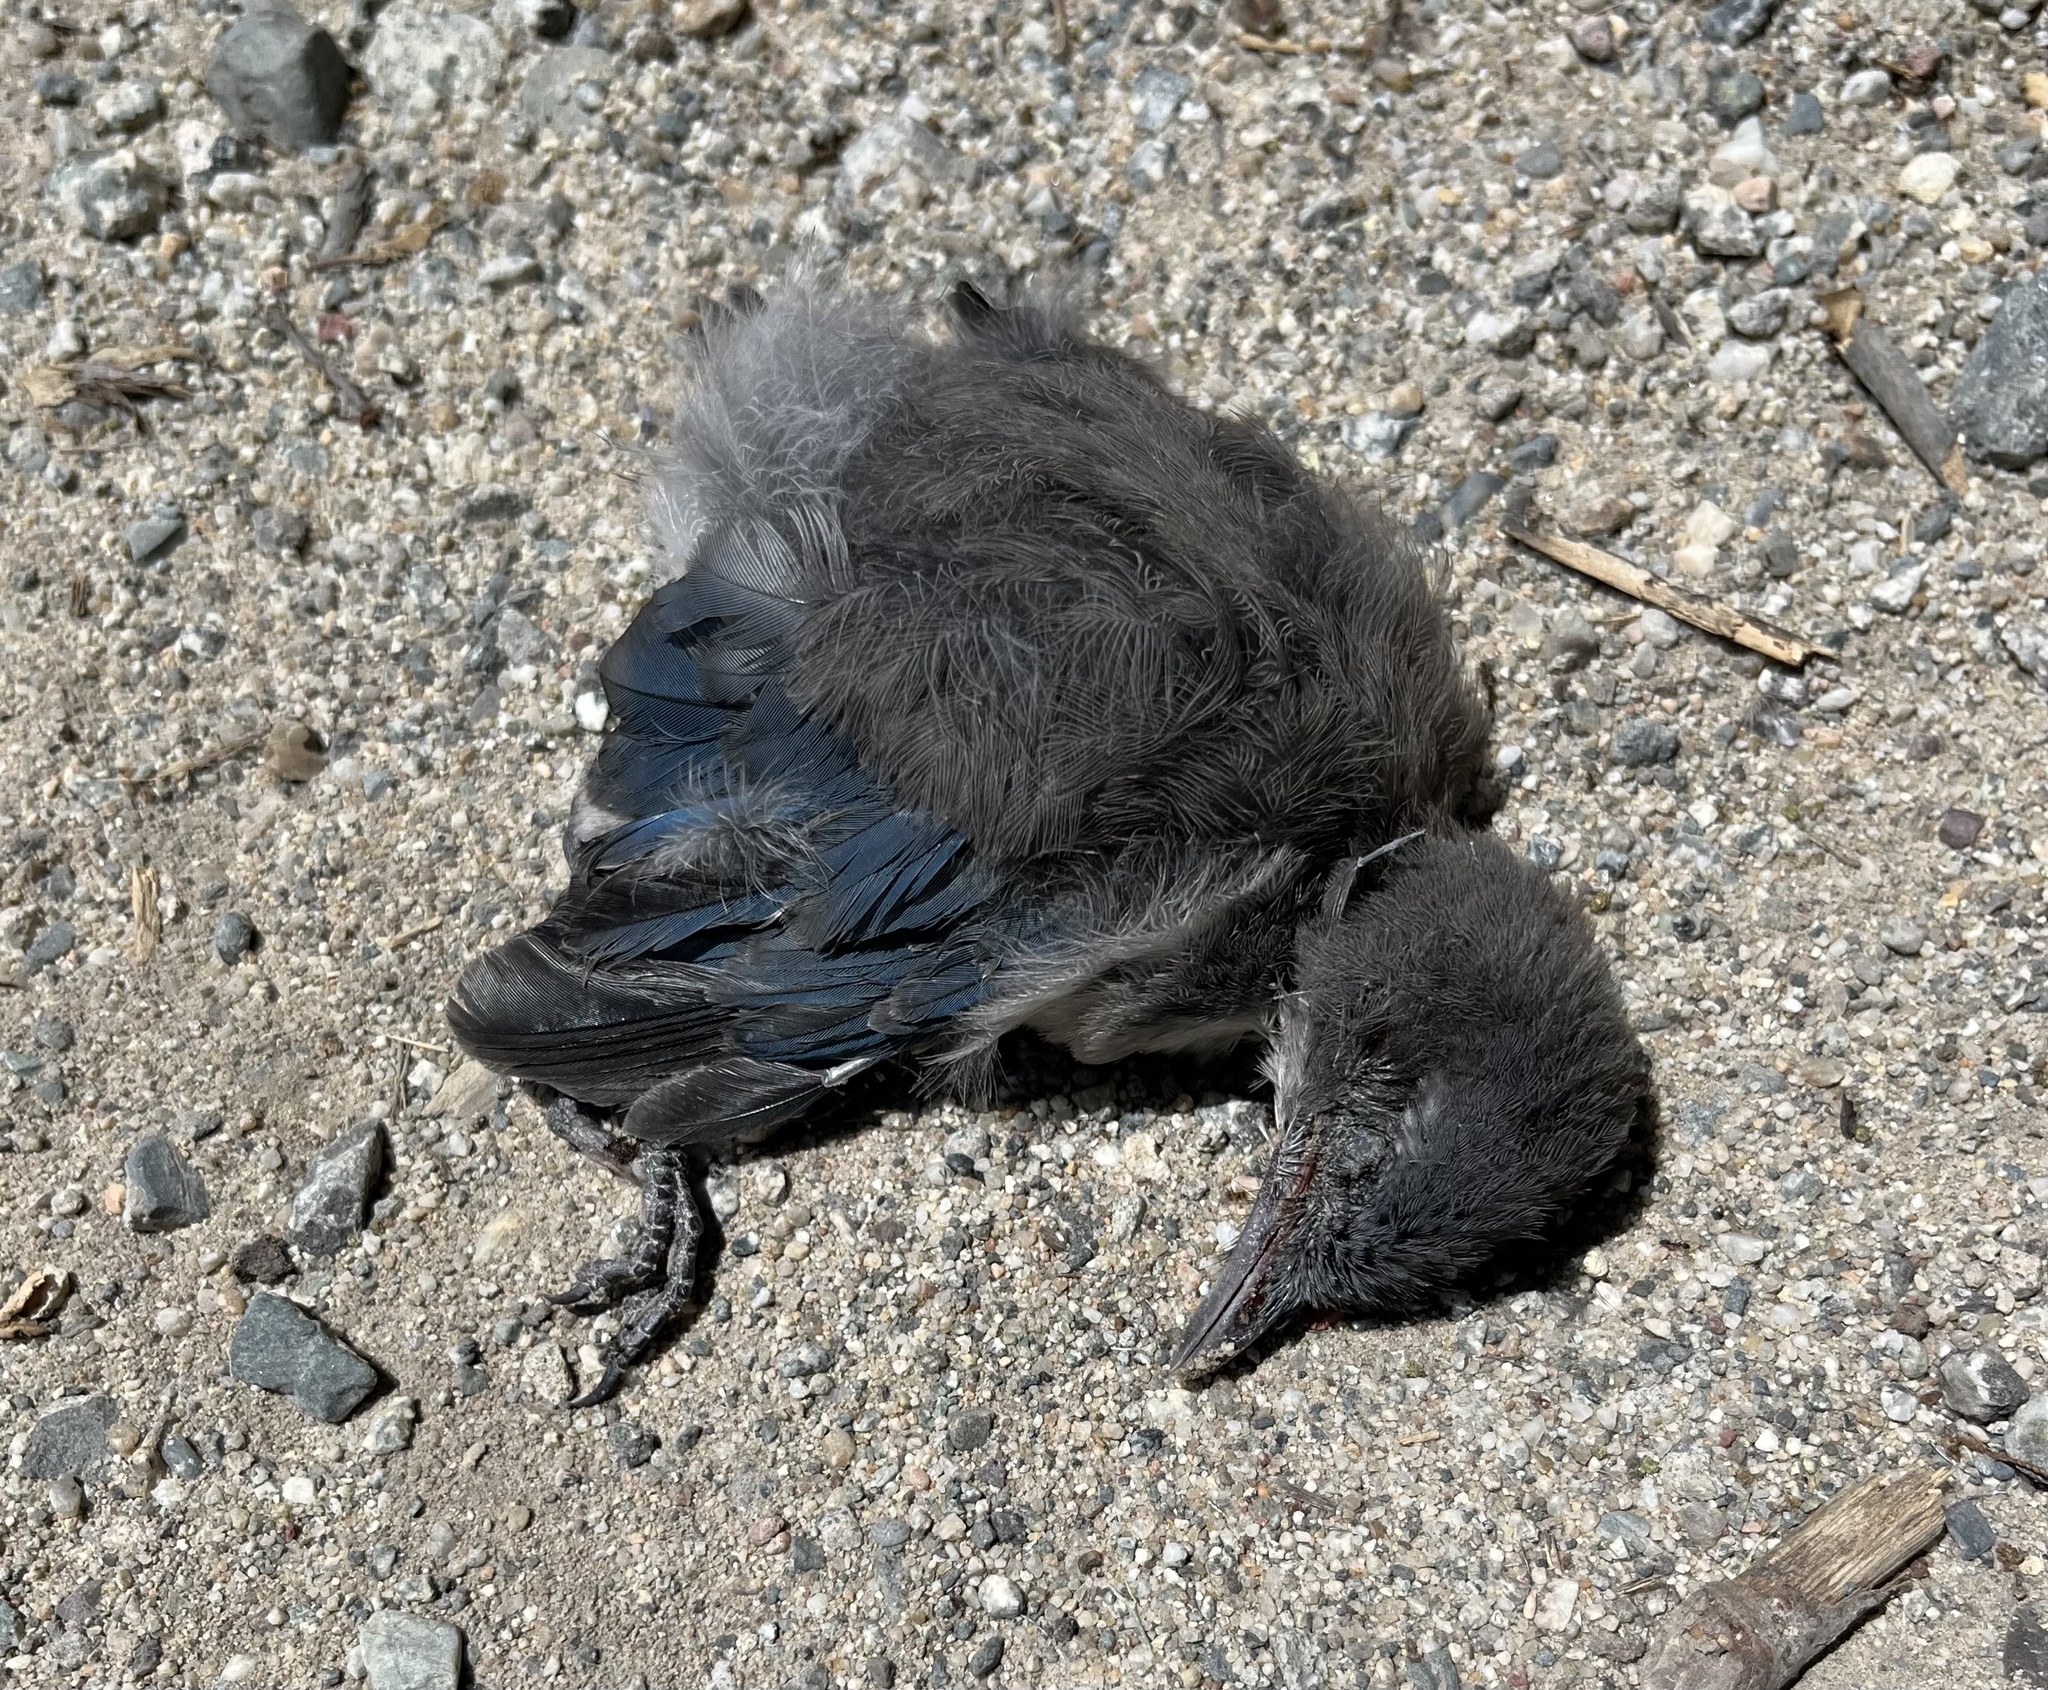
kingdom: Animalia
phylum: Chordata
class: Aves
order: Passeriformes
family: Corvidae
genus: Aphelocoma
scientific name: Aphelocoma californica
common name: California scrub-jay
